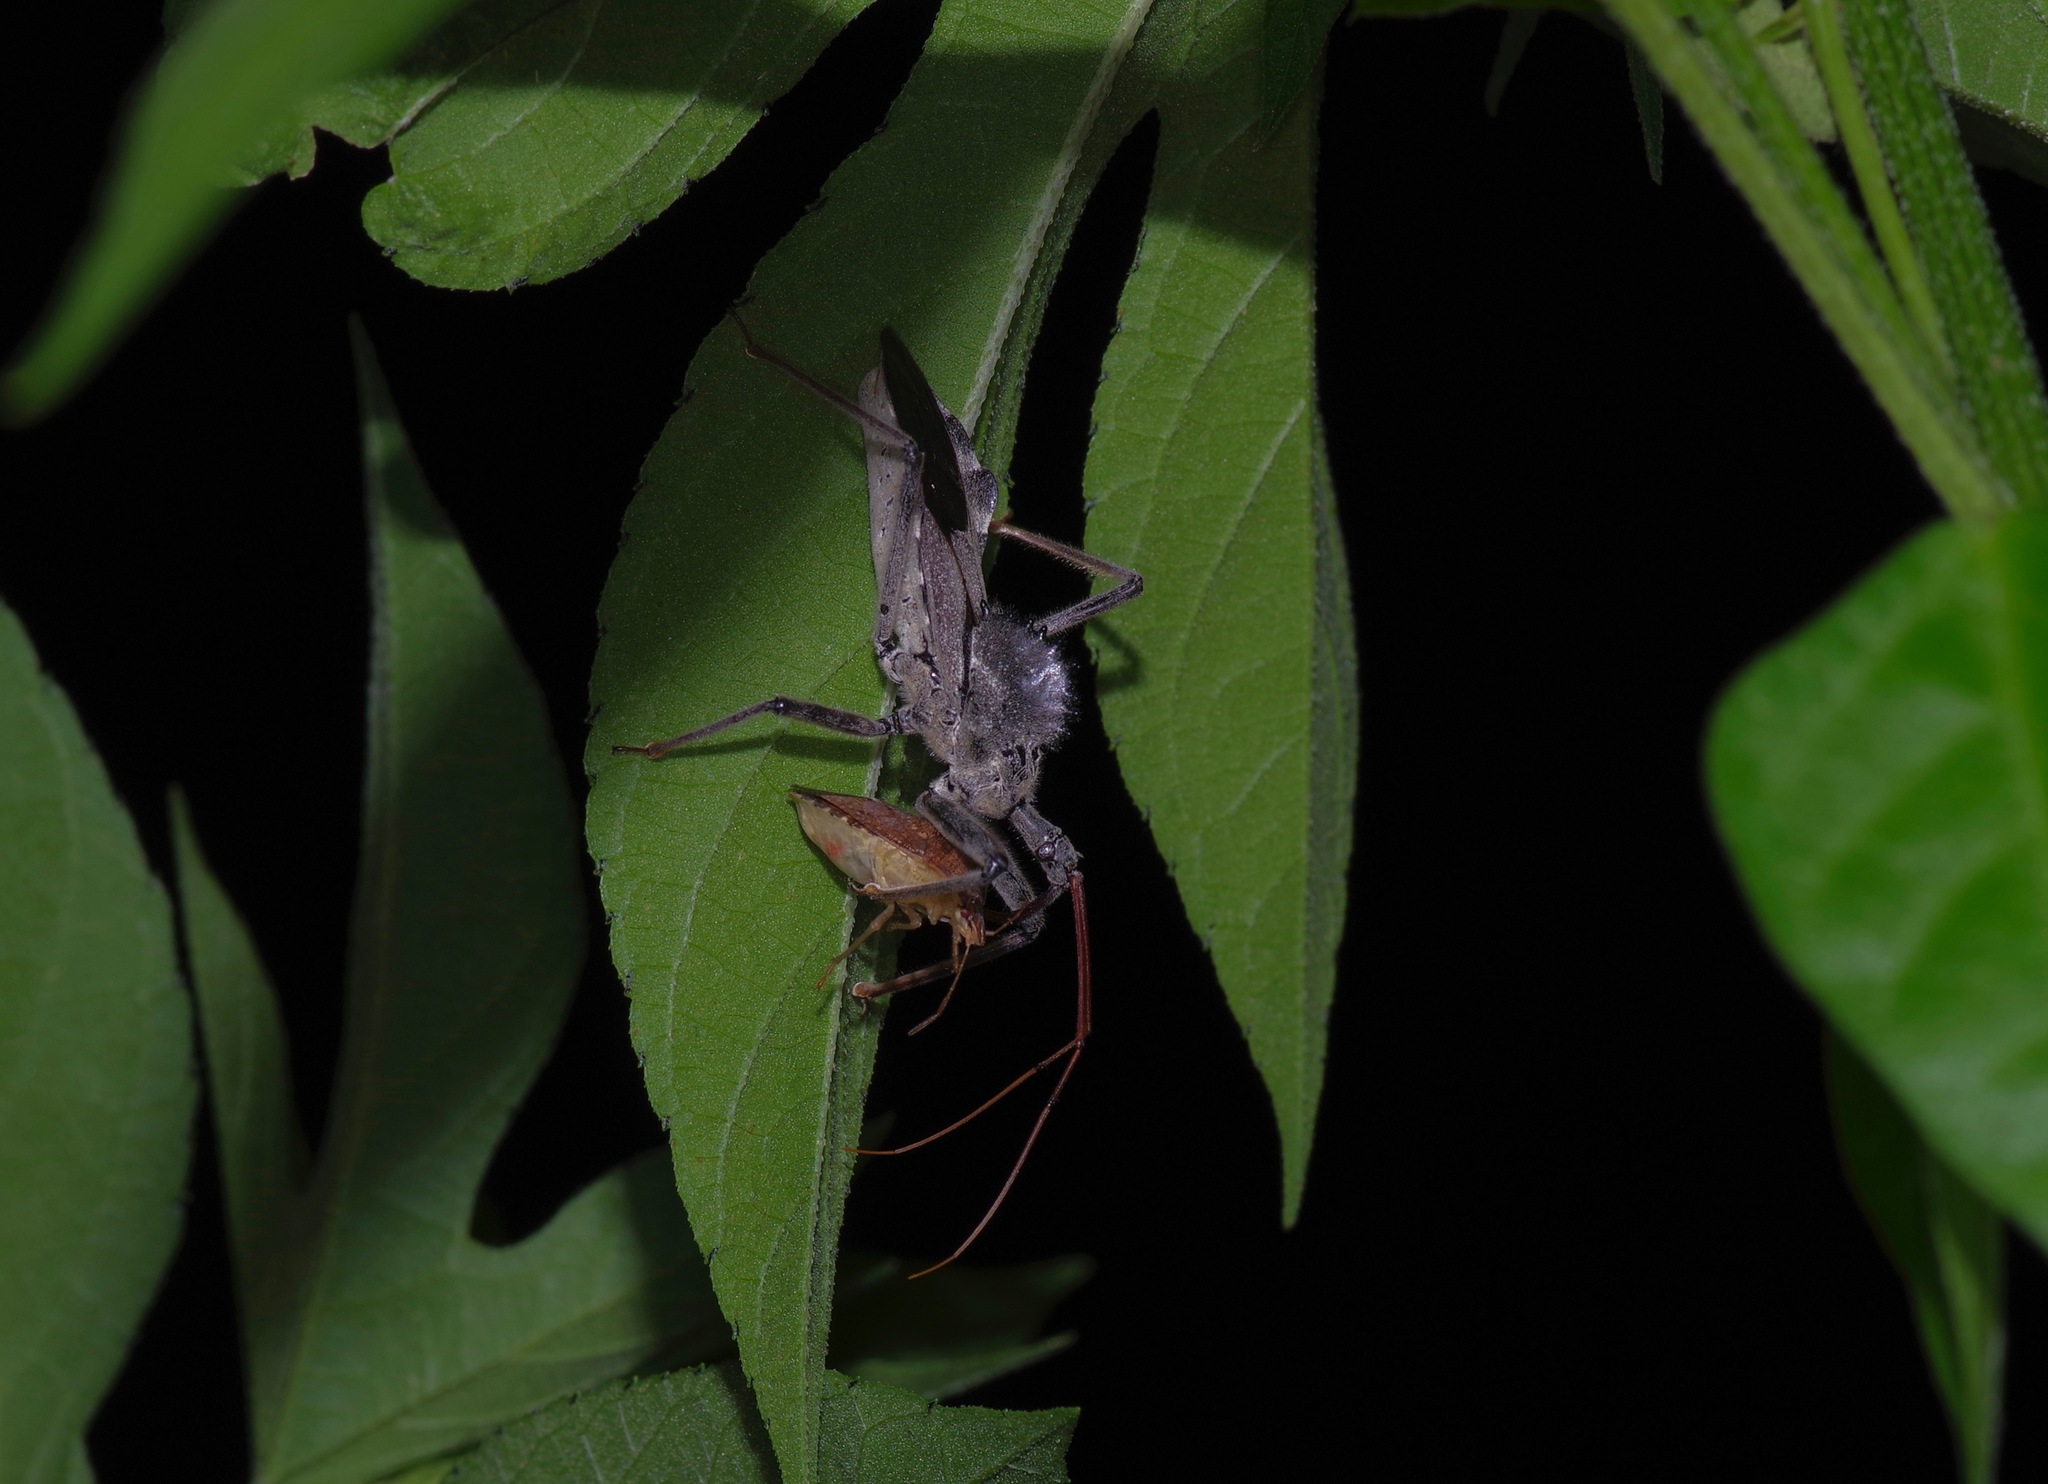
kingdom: Animalia
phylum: Arthropoda
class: Insecta
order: Hemiptera
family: Reduviidae
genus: Arilus
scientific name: Arilus cristatus
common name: North american wheel bug
